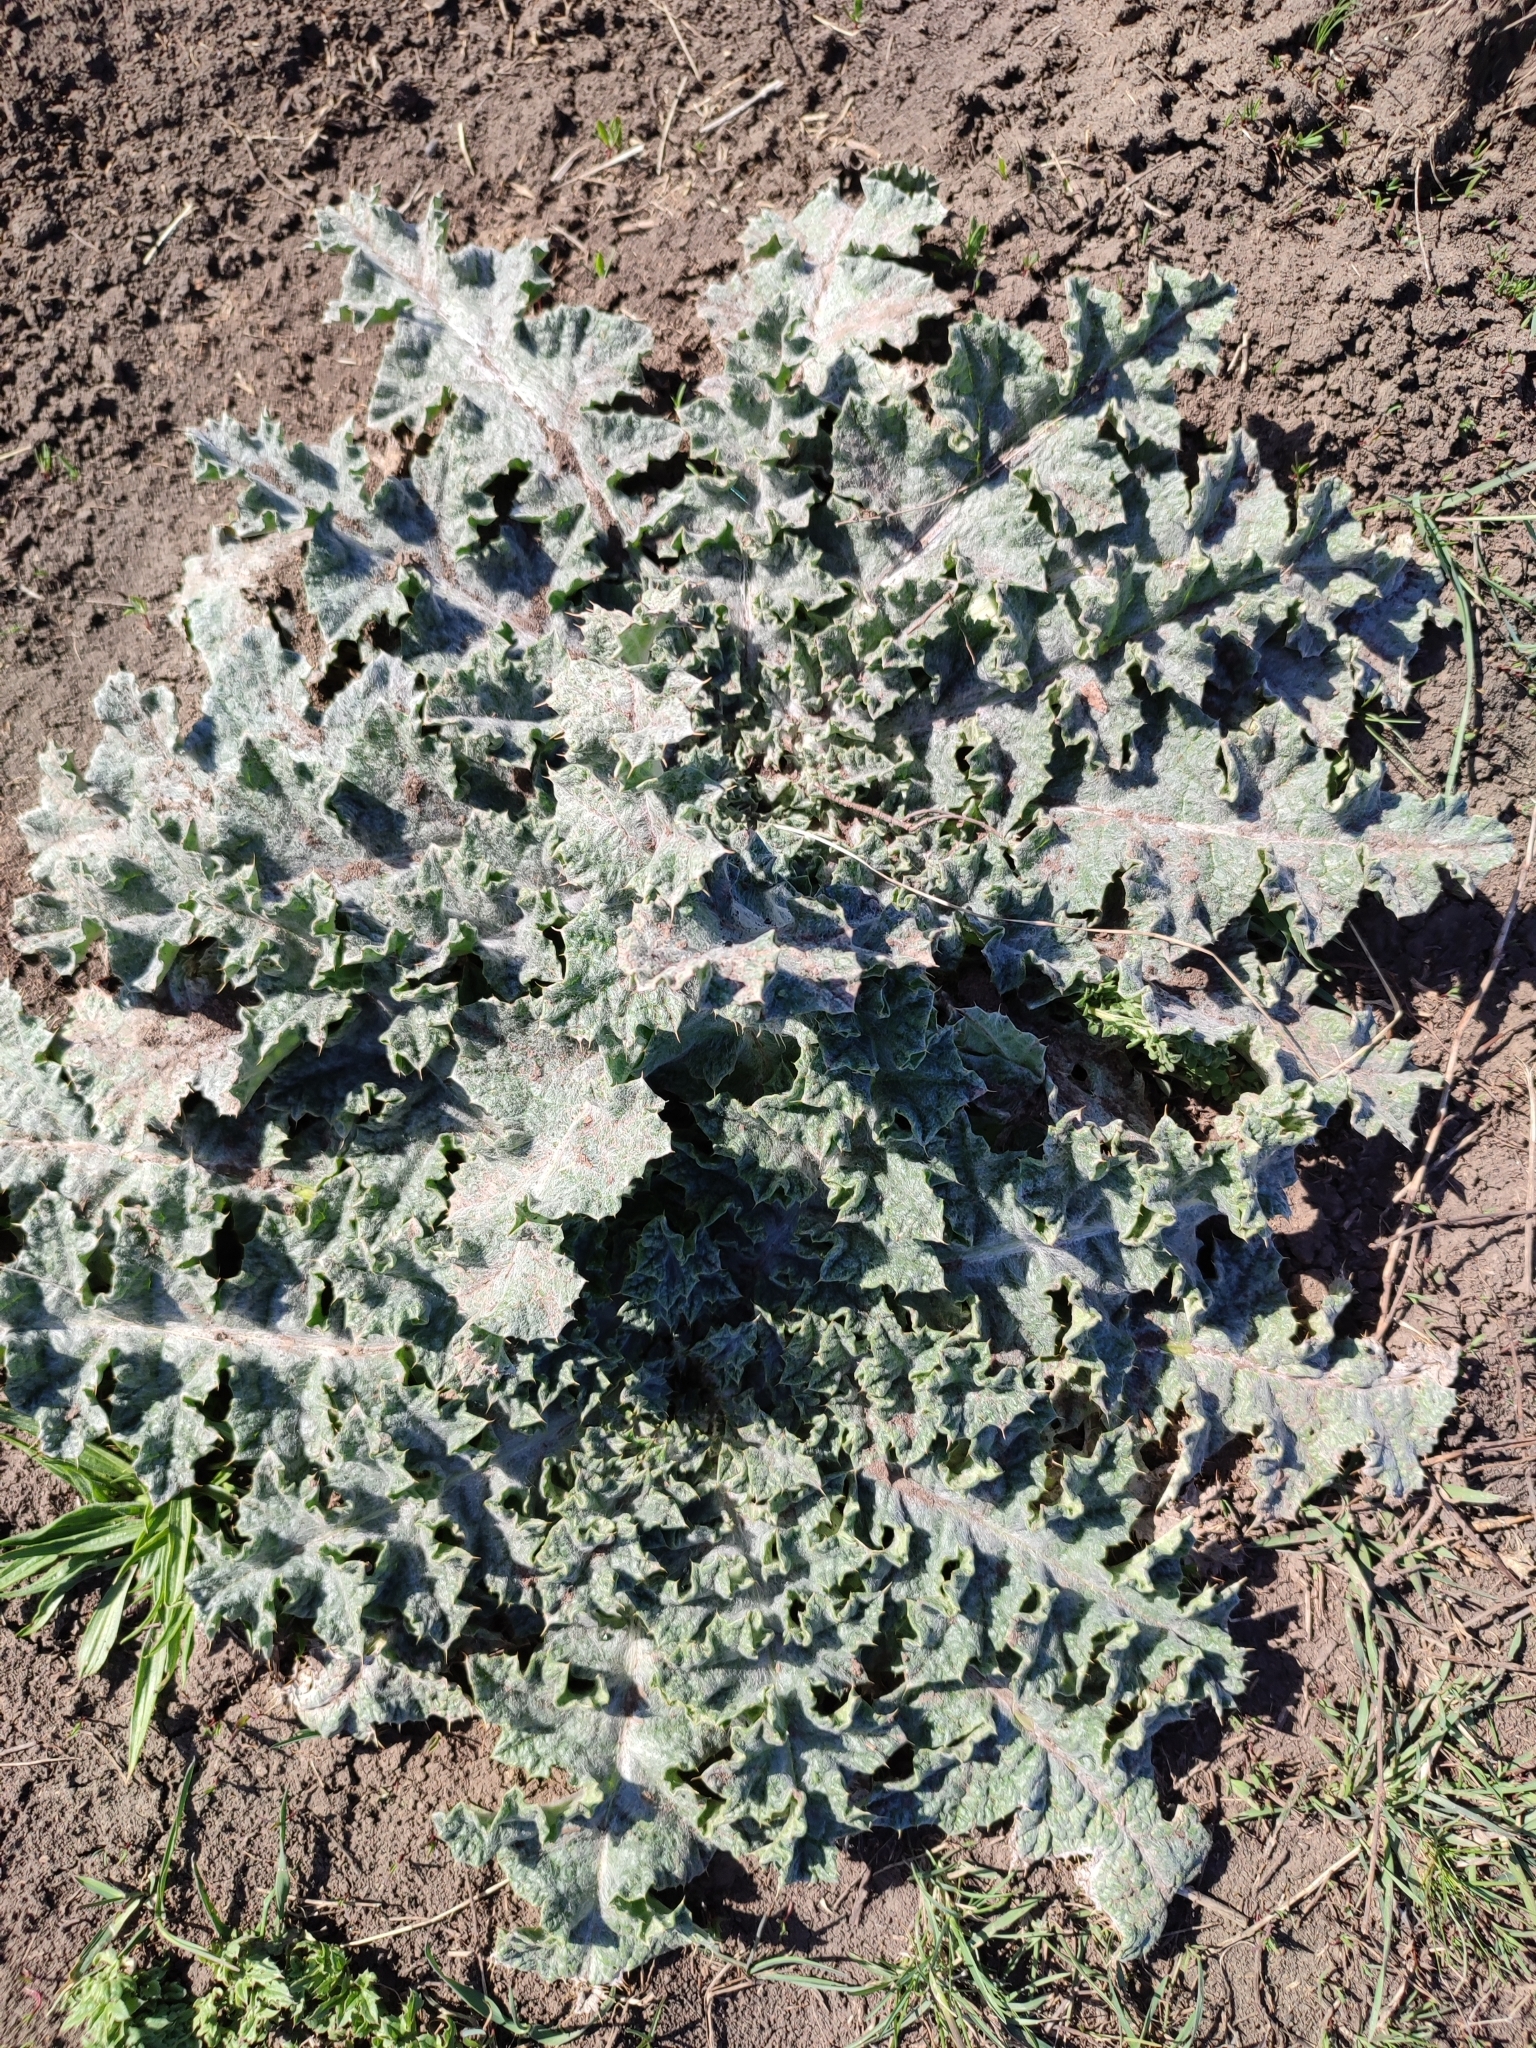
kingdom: Plantae
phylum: Tracheophyta
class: Magnoliopsida
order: Asterales
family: Asteraceae
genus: Onopordum
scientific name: Onopordum acanthium
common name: Scotch thistle
